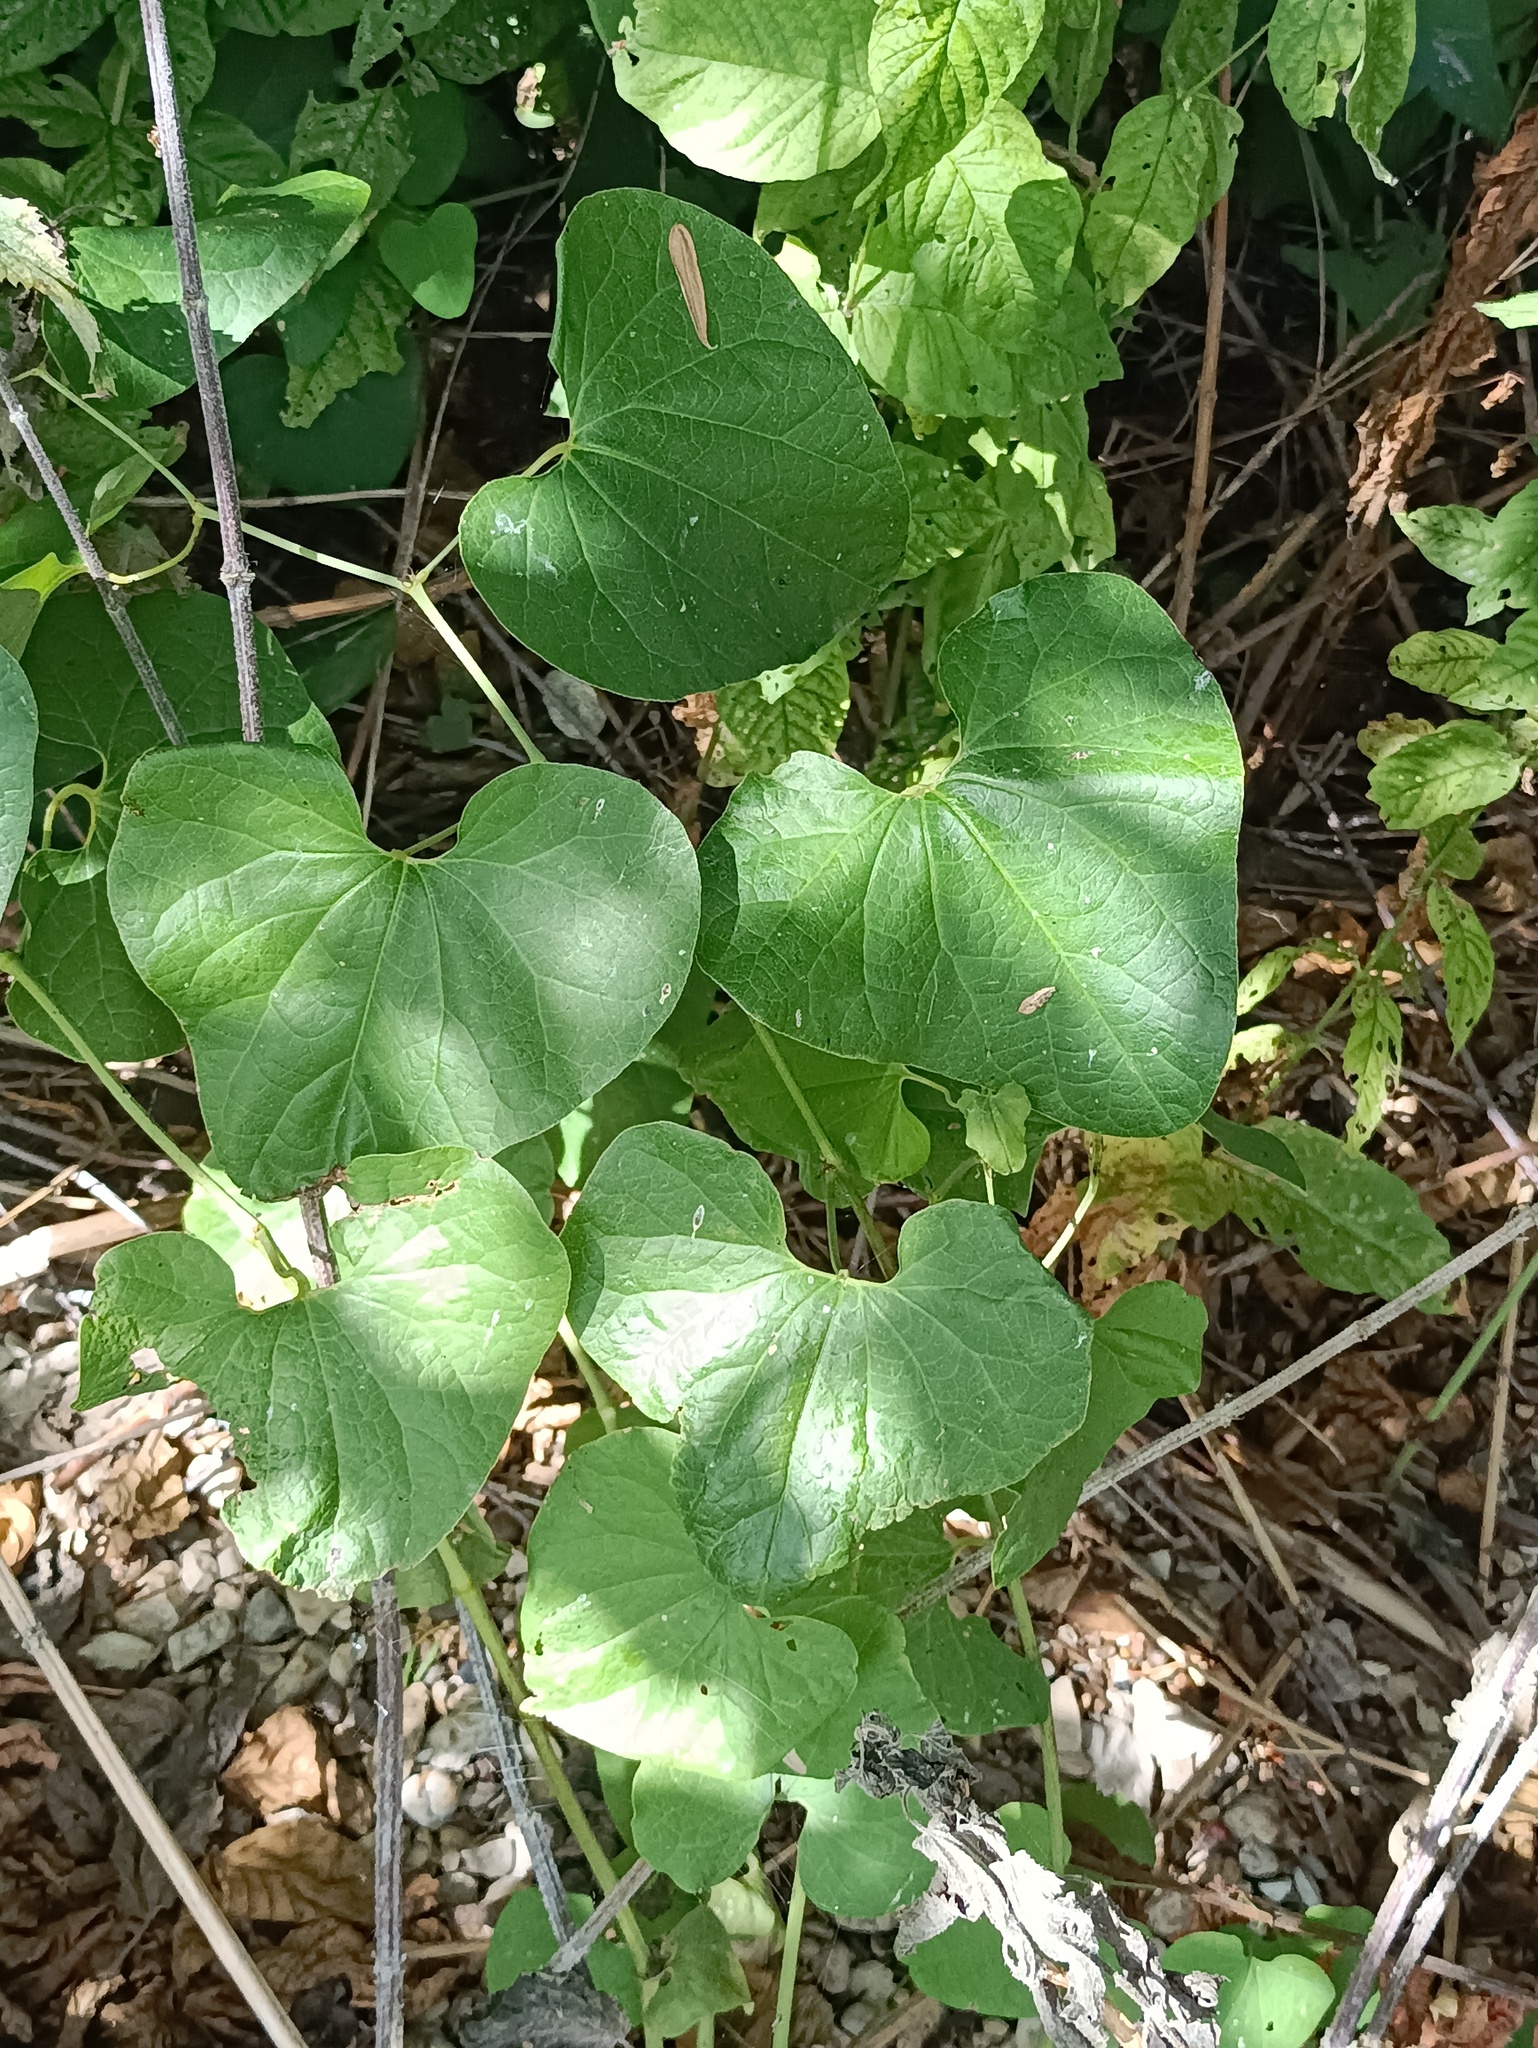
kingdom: Plantae
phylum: Tracheophyta
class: Magnoliopsida
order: Piperales
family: Aristolochiaceae
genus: Aristolochia
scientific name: Aristolochia clematitis
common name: Birthwort
